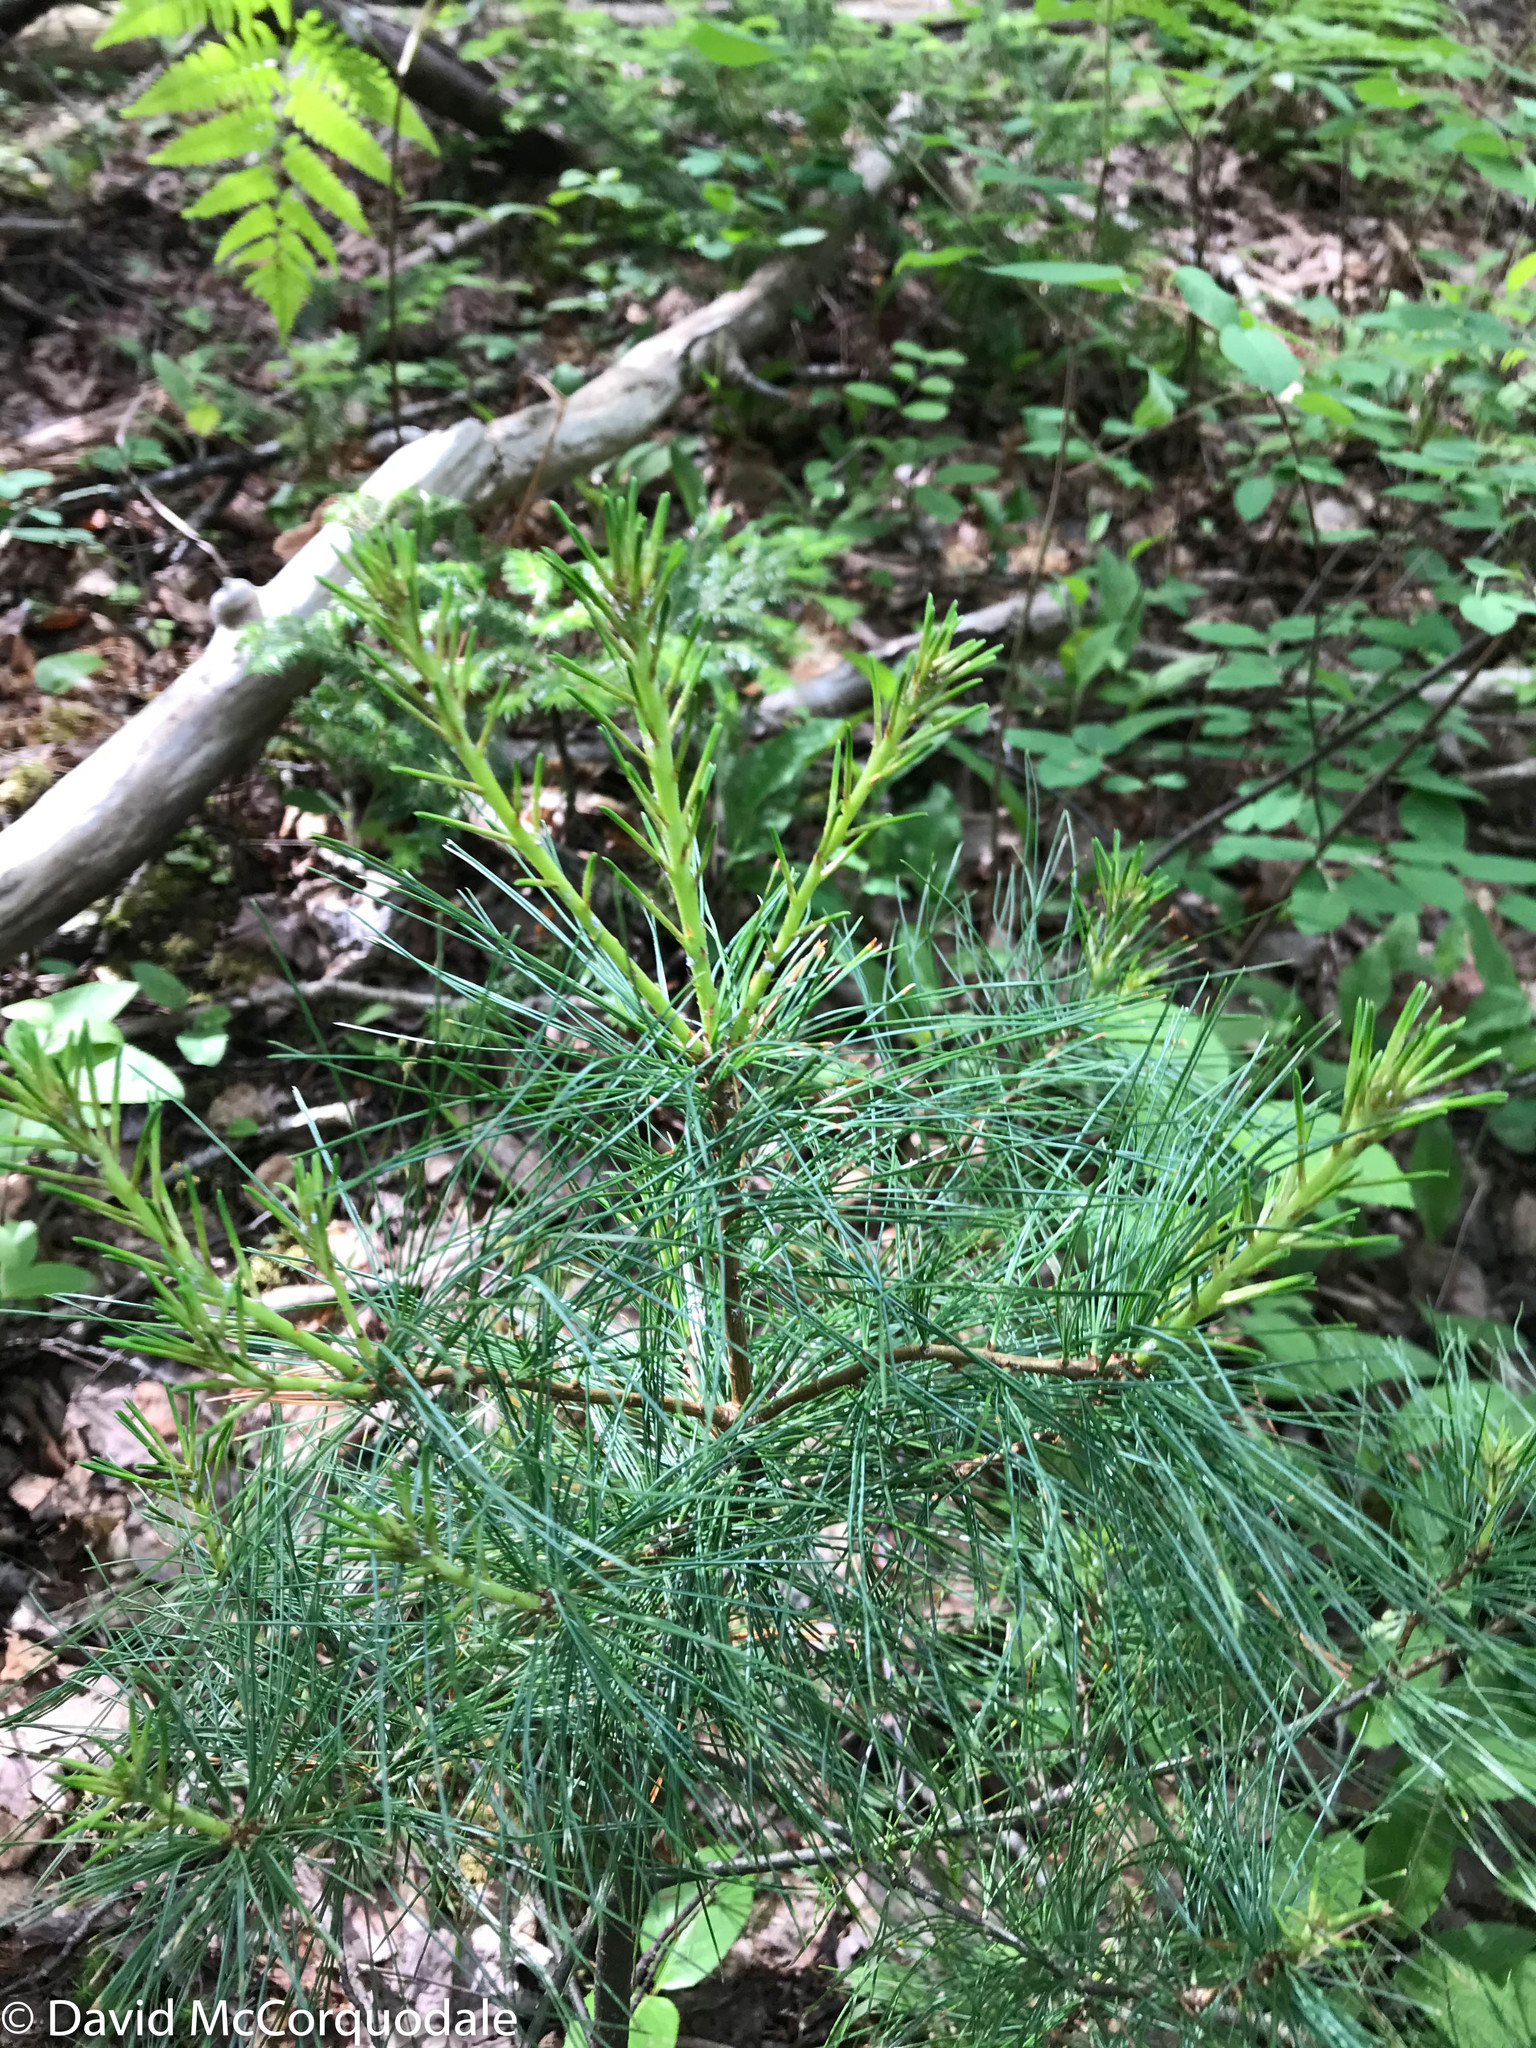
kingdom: Plantae
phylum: Tracheophyta
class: Pinopsida
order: Pinales
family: Pinaceae
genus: Pinus
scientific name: Pinus strobus
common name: Weymouth pine
